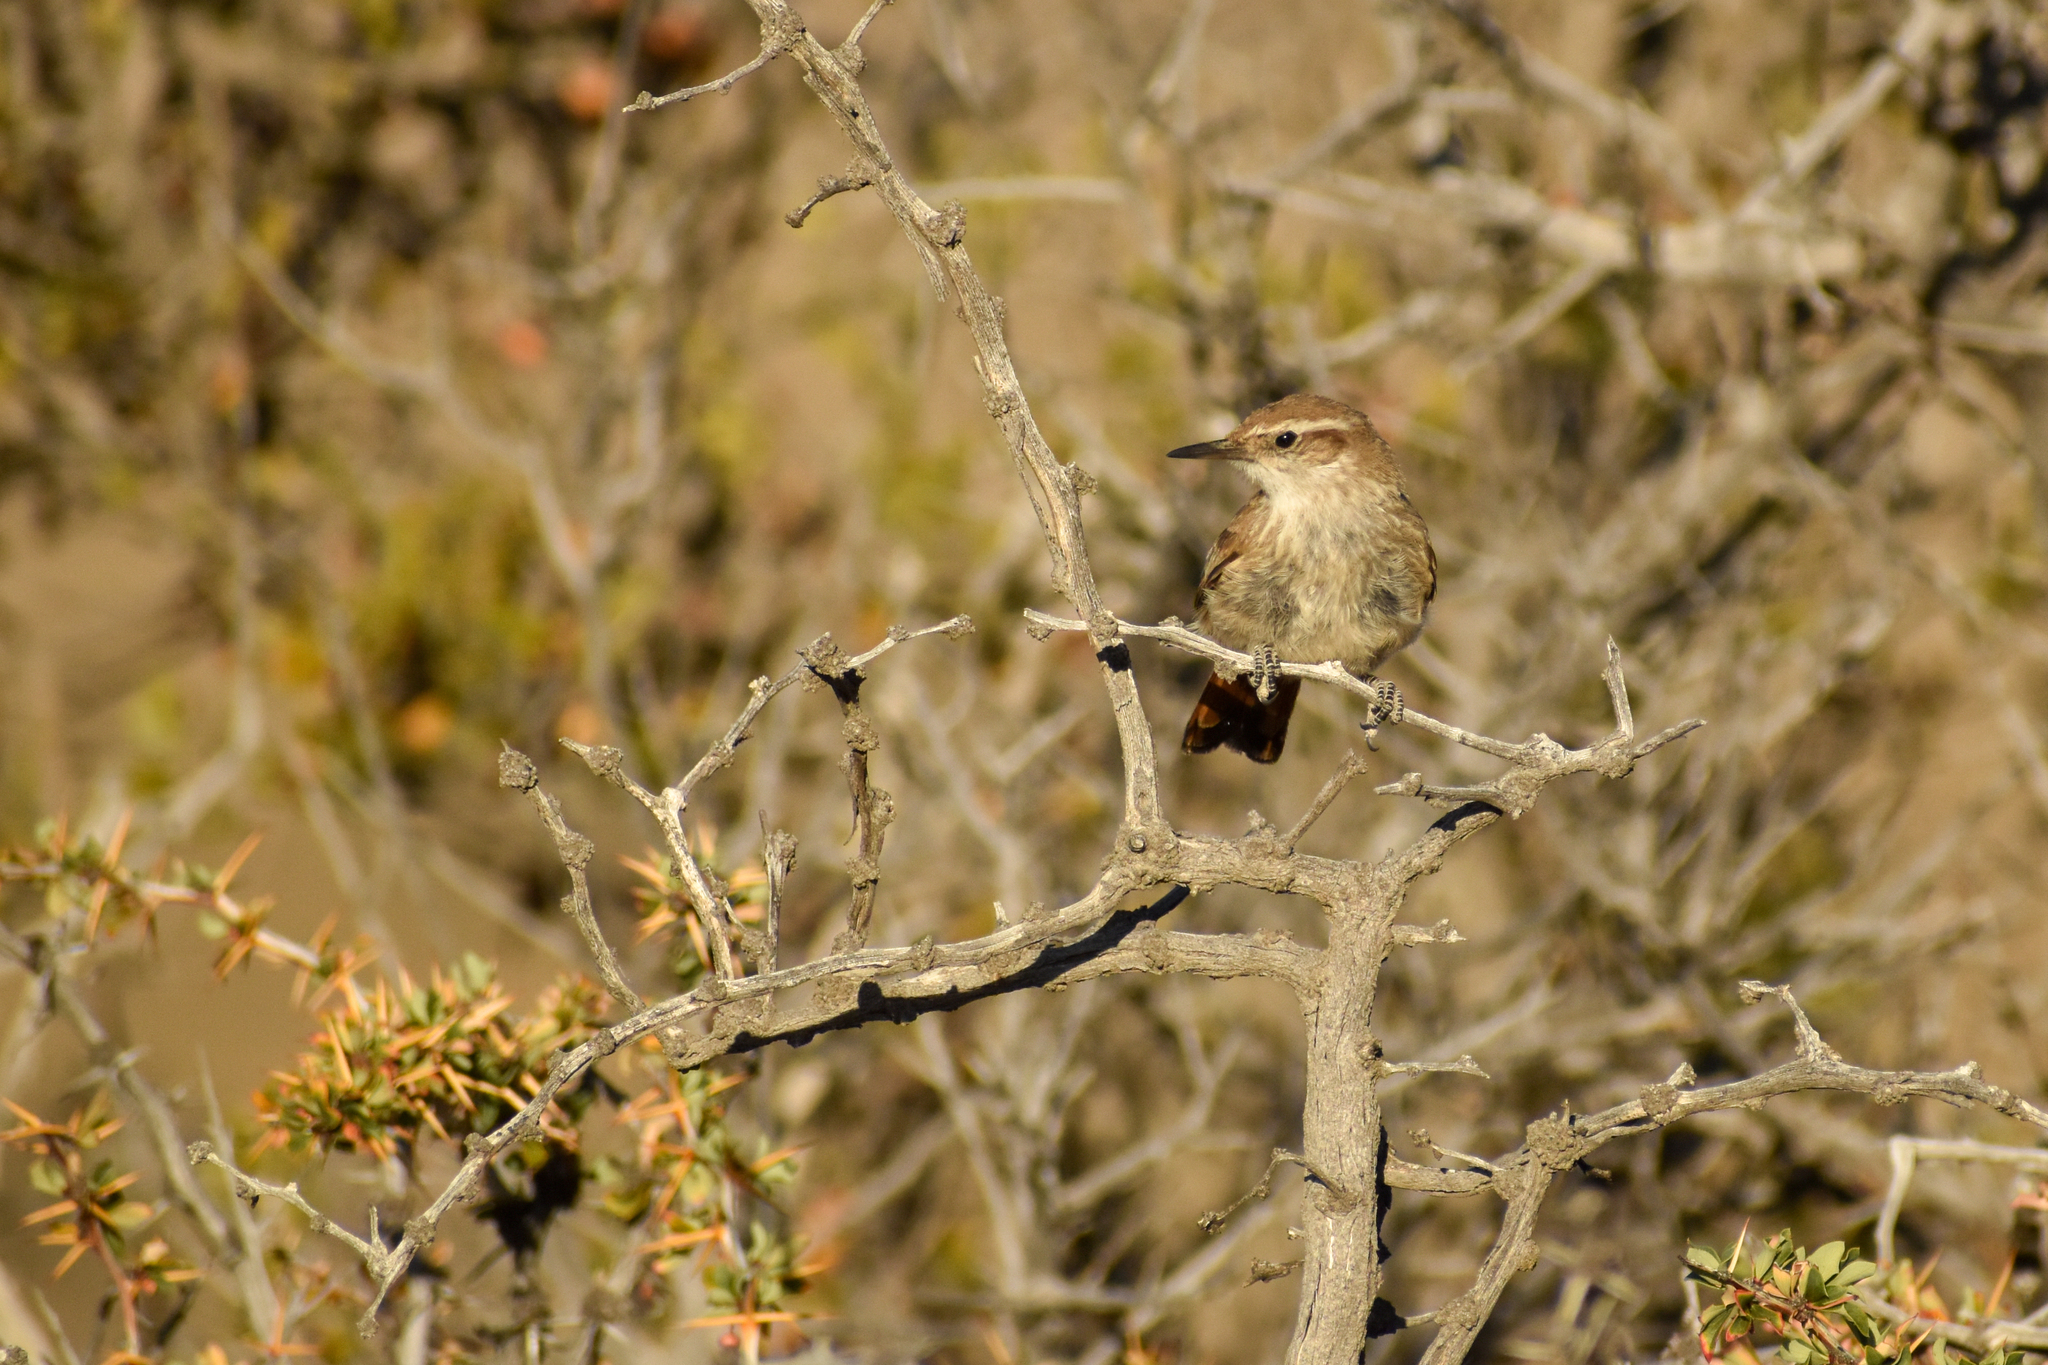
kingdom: Animalia
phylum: Chordata
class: Aves
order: Passeriformes
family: Furnariidae
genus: Eremobius
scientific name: Eremobius phoenicurus
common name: Band-tailed eremobius
